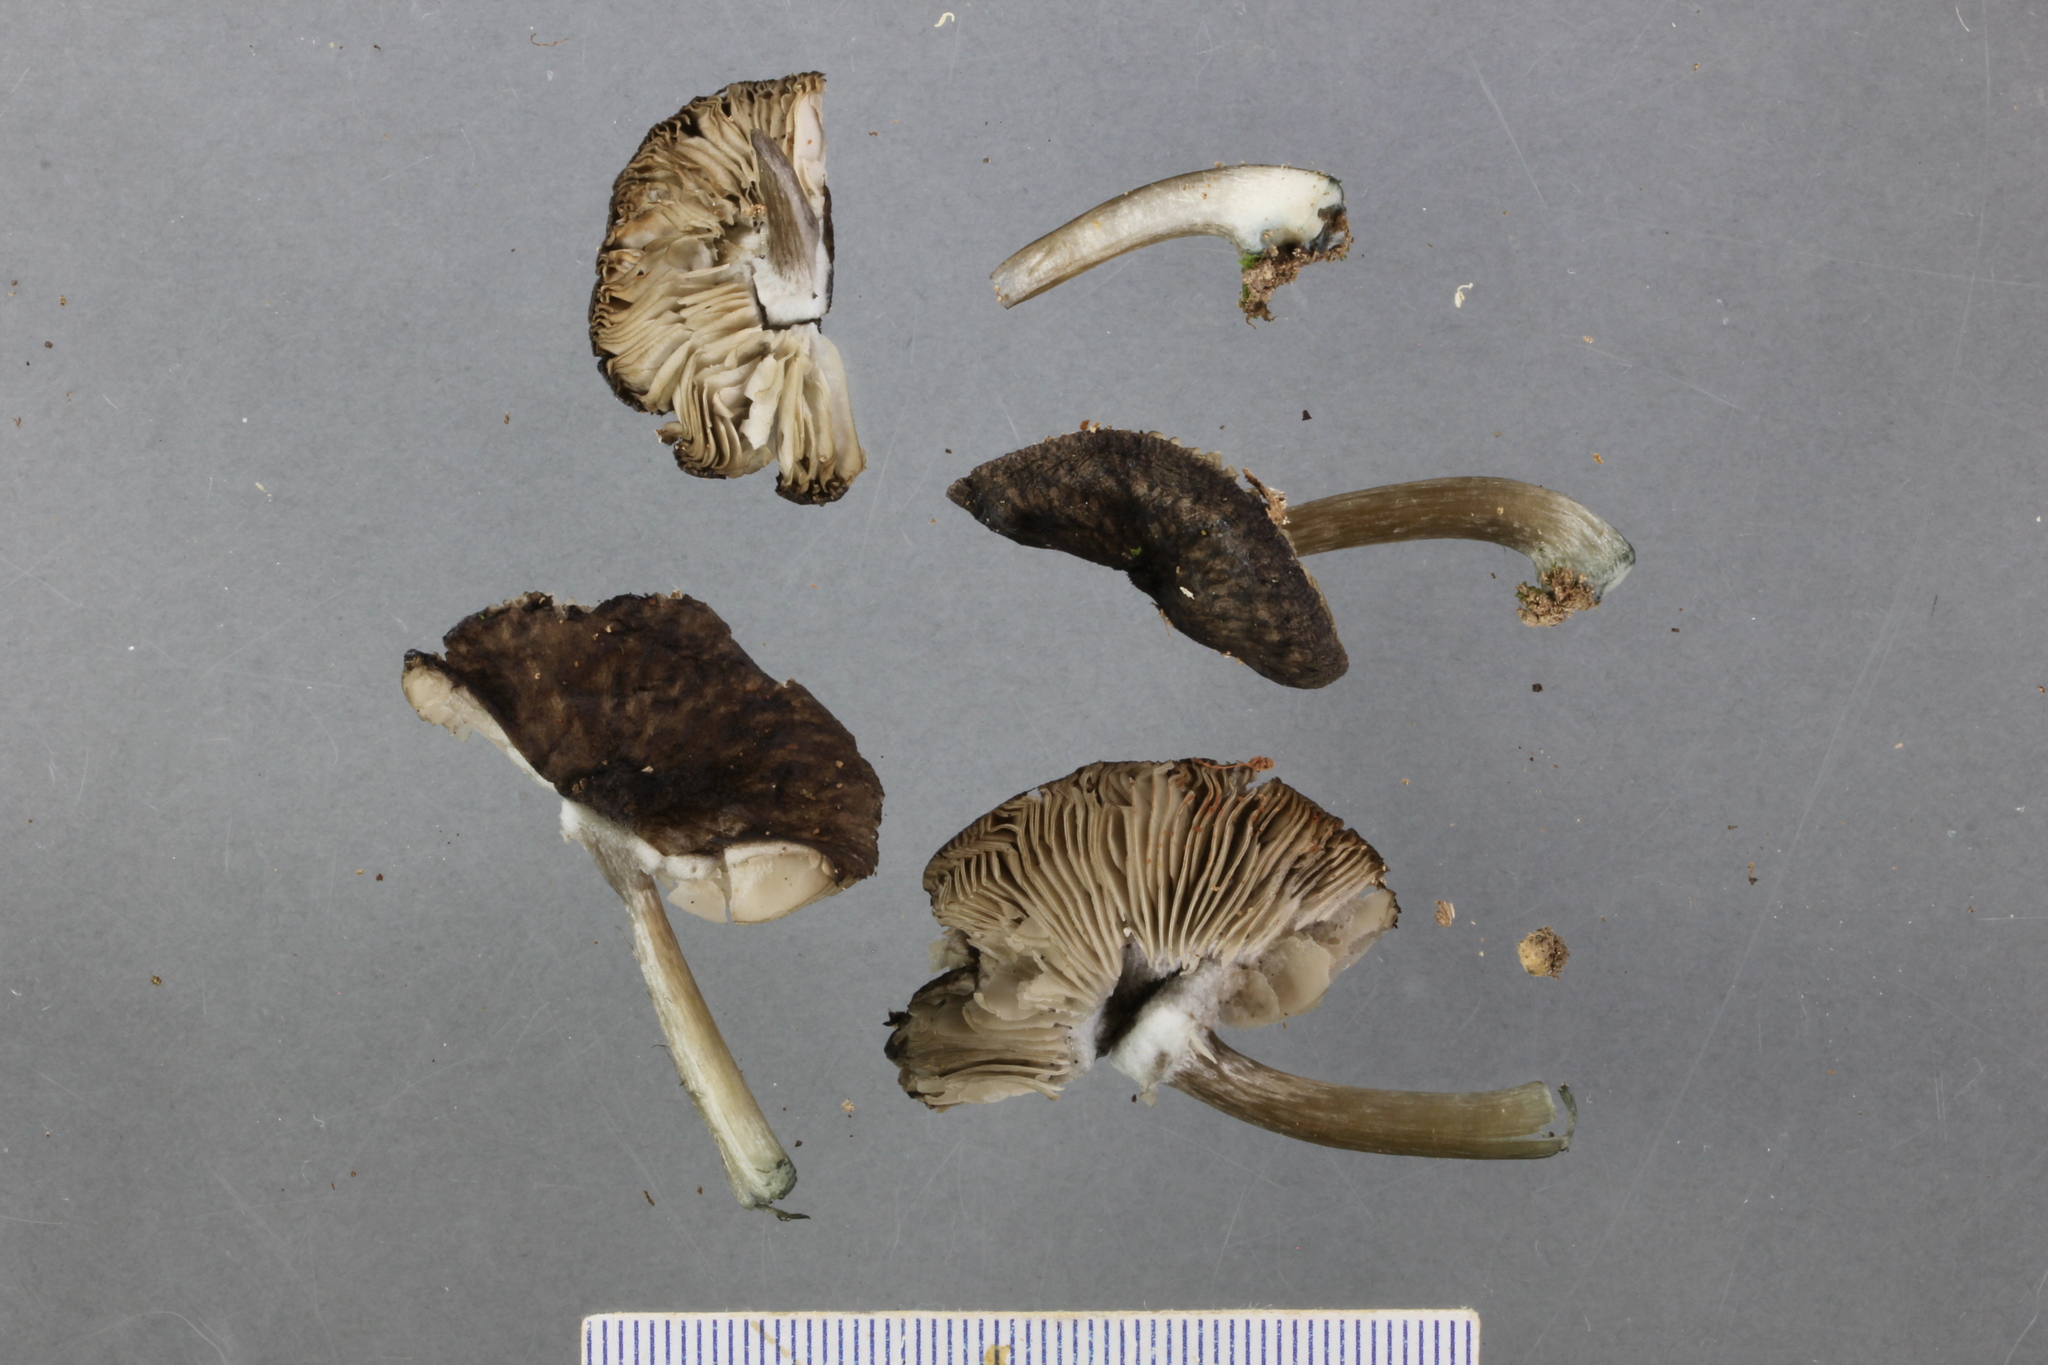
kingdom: Fungi
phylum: Basidiomycota
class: Agaricomycetes
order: Agaricales
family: Pluteaceae
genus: Pluteus
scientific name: Pluteus velutinornatus
